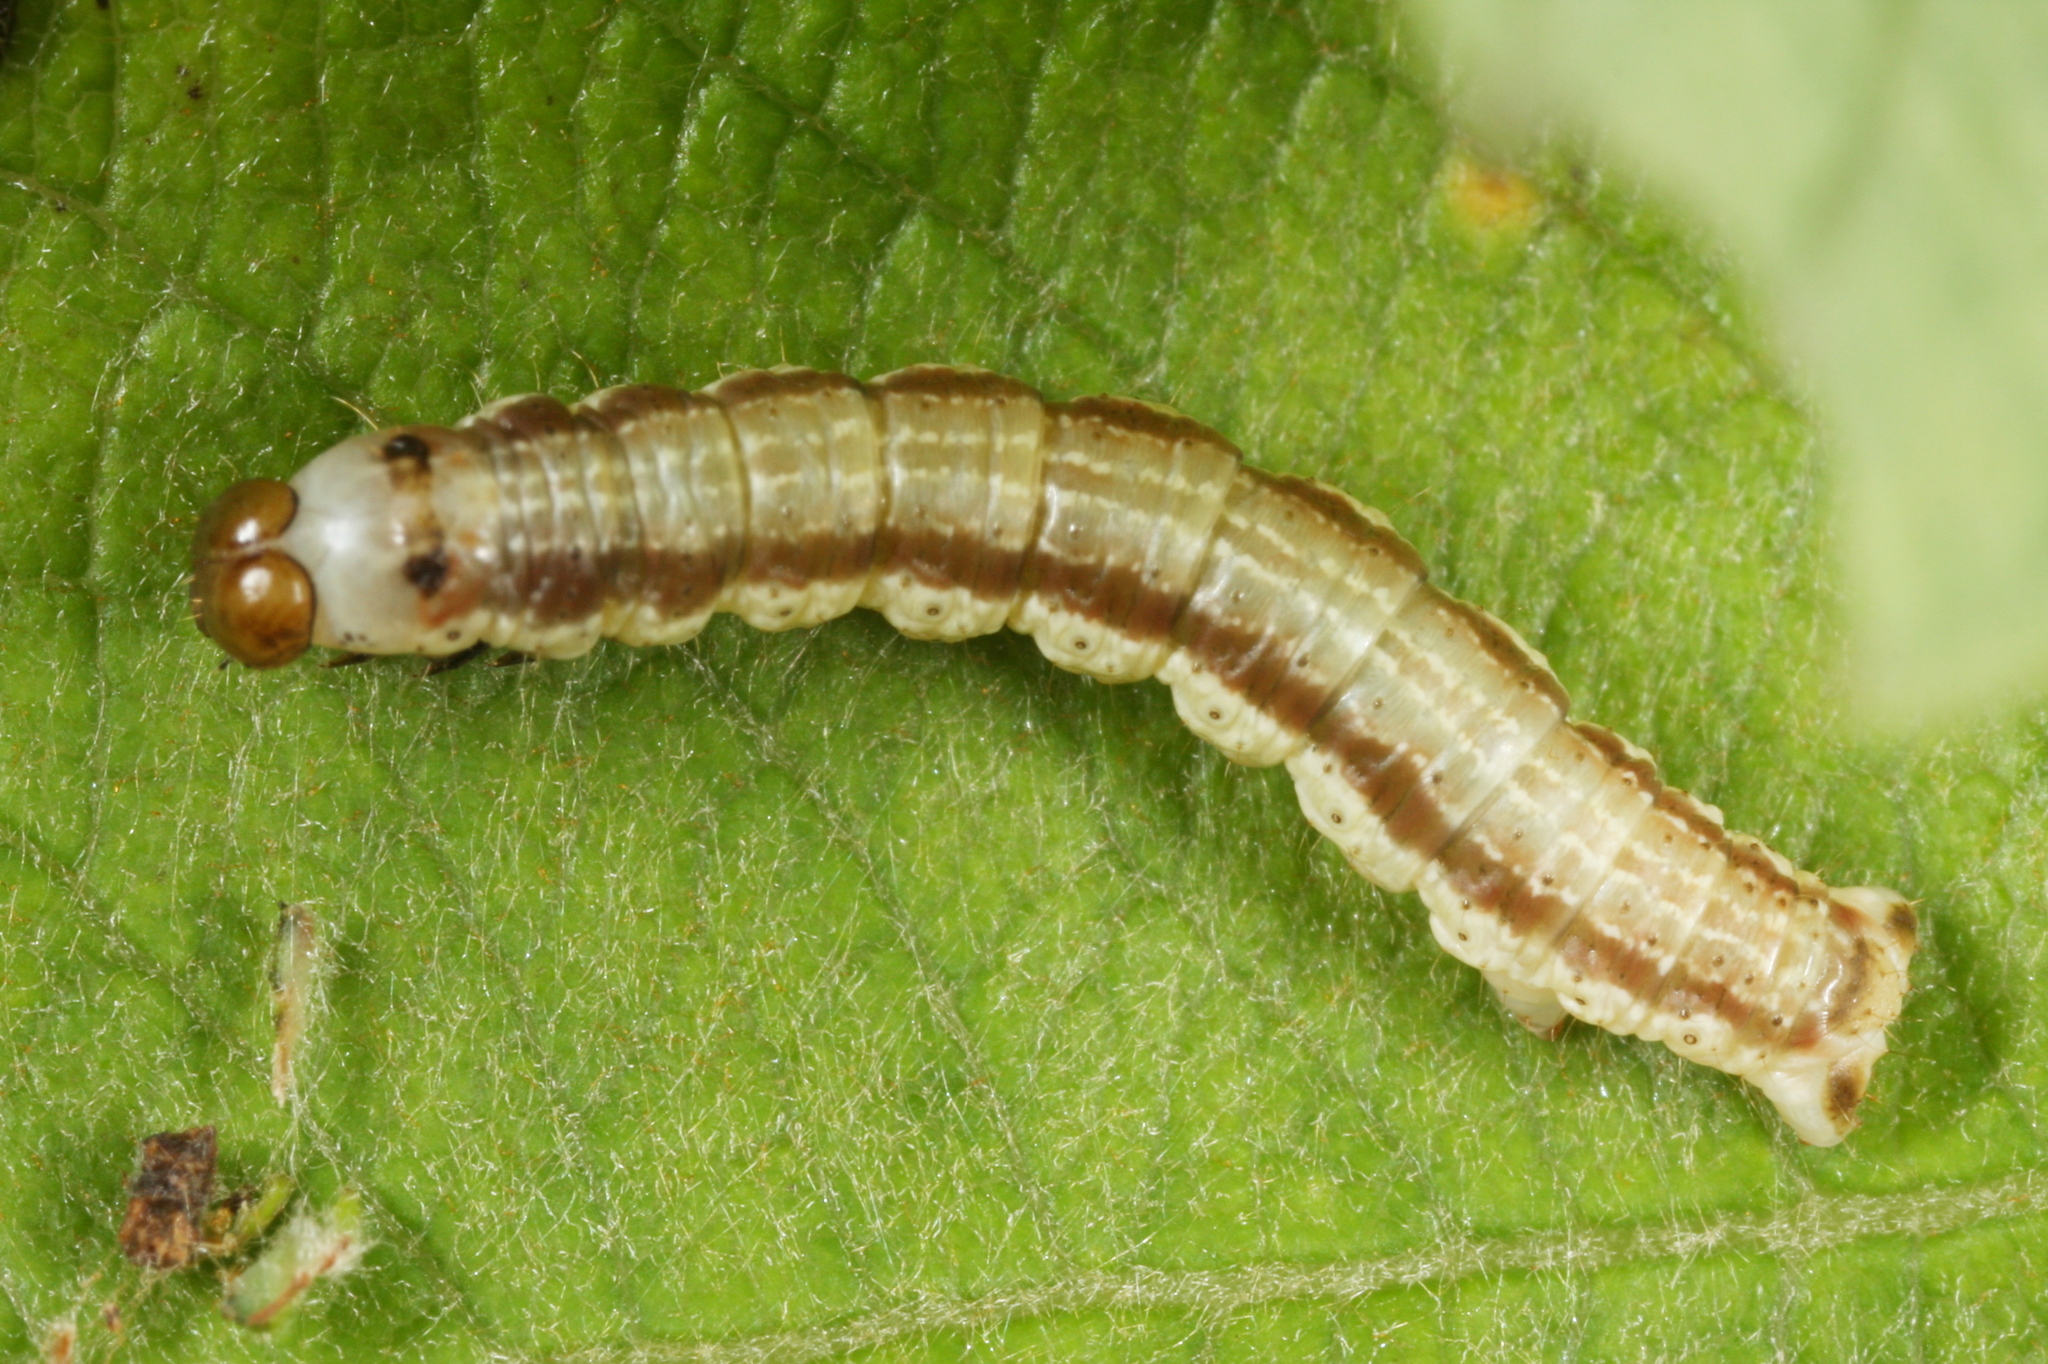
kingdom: Animalia
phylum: Arthropoda
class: Insecta
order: Lepidoptera
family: Geometridae
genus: Rheumaptera
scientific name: Rheumaptera undulata
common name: Scallop shell
